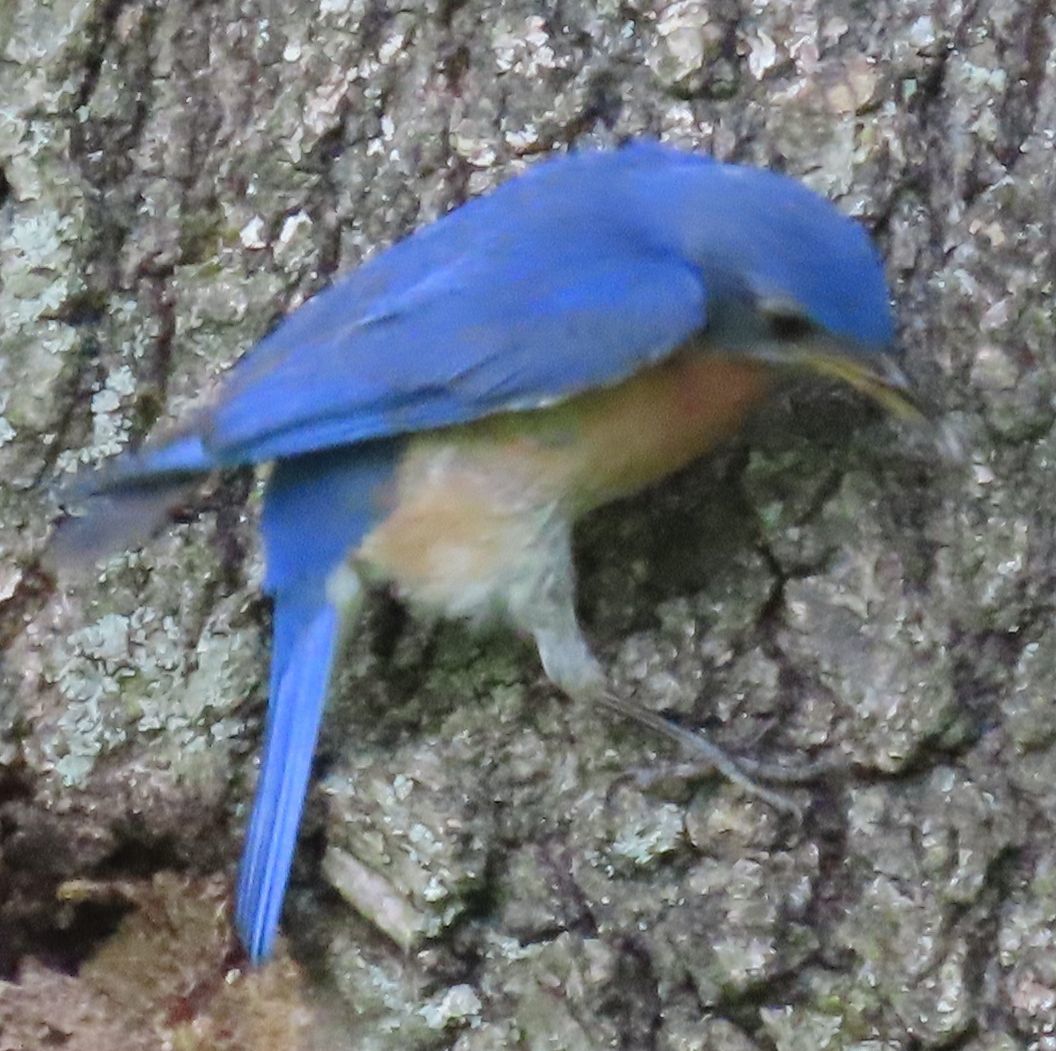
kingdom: Animalia
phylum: Chordata
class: Aves
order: Passeriformes
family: Turdidae
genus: Sialia
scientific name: Sialia sialis
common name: Eastern bluebird
